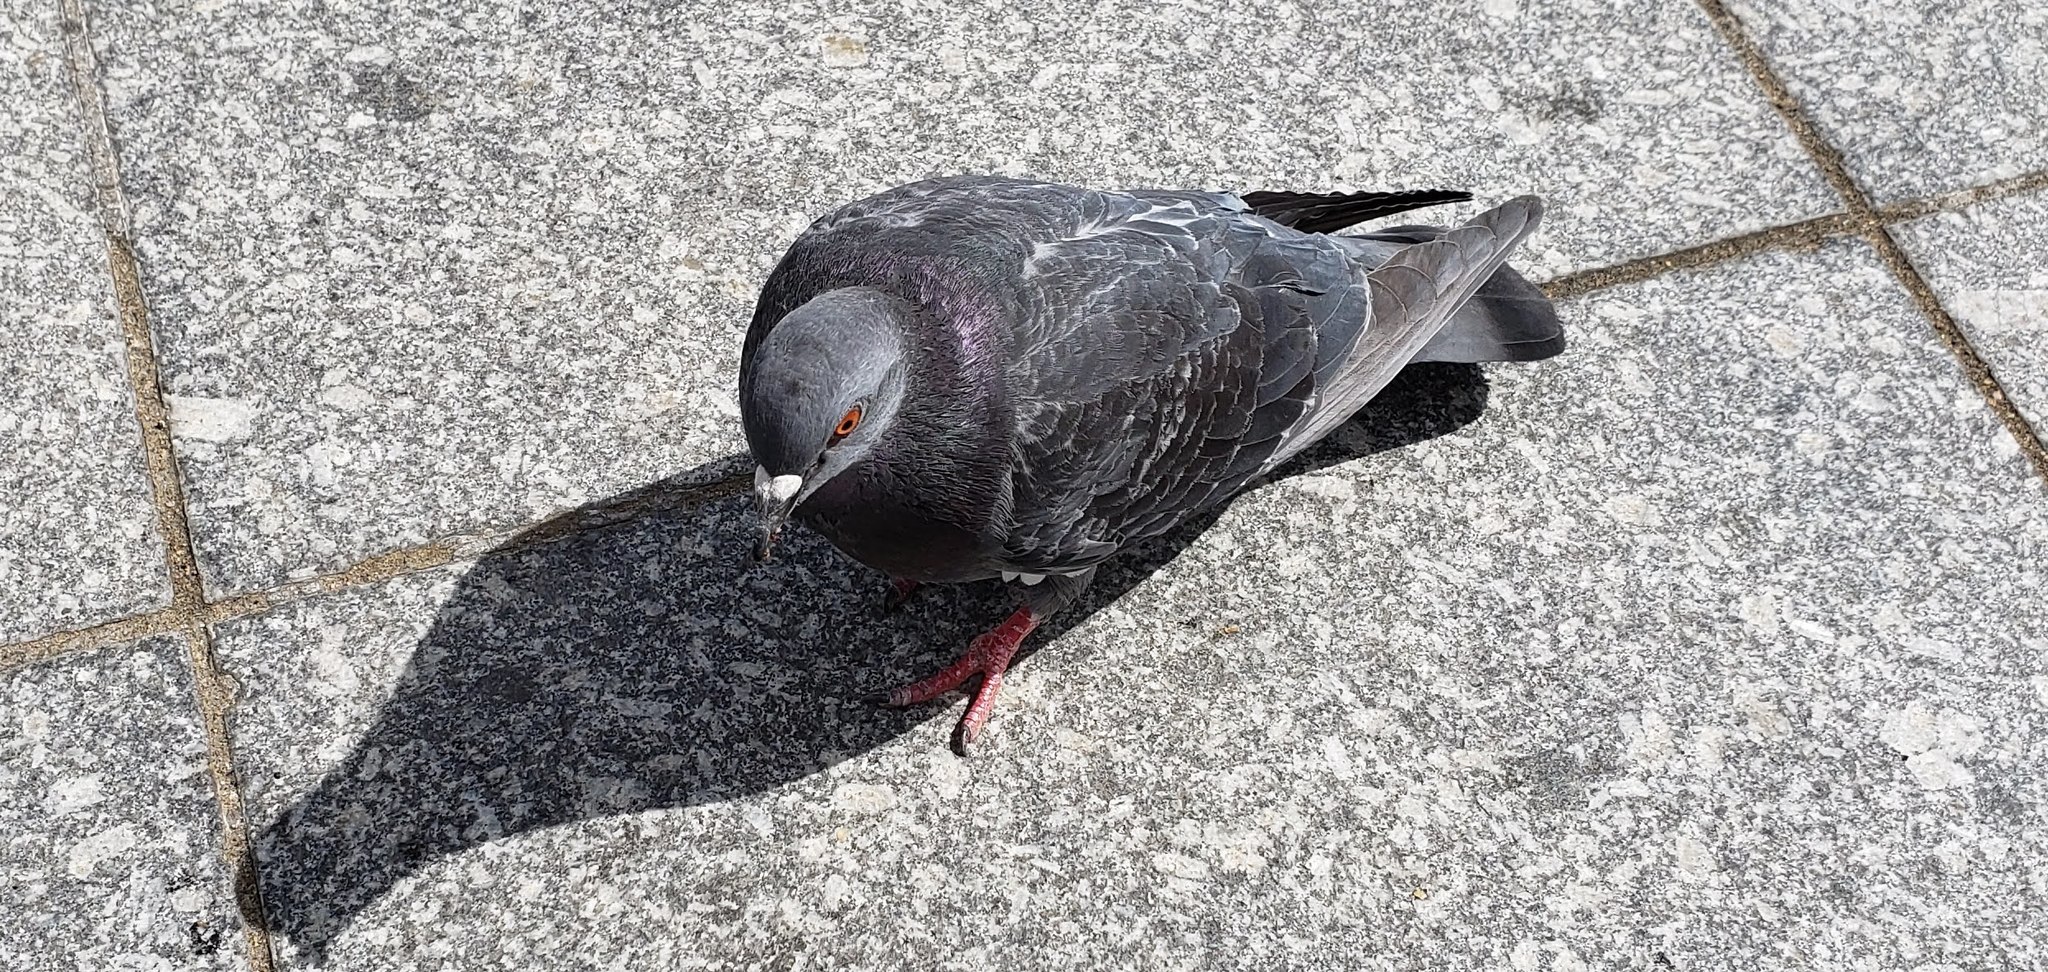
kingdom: Animalia
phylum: Chordata
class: Aves
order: Columbiformes
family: Columbidae
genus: Columba
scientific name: Columba livia
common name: Rock pigeon
